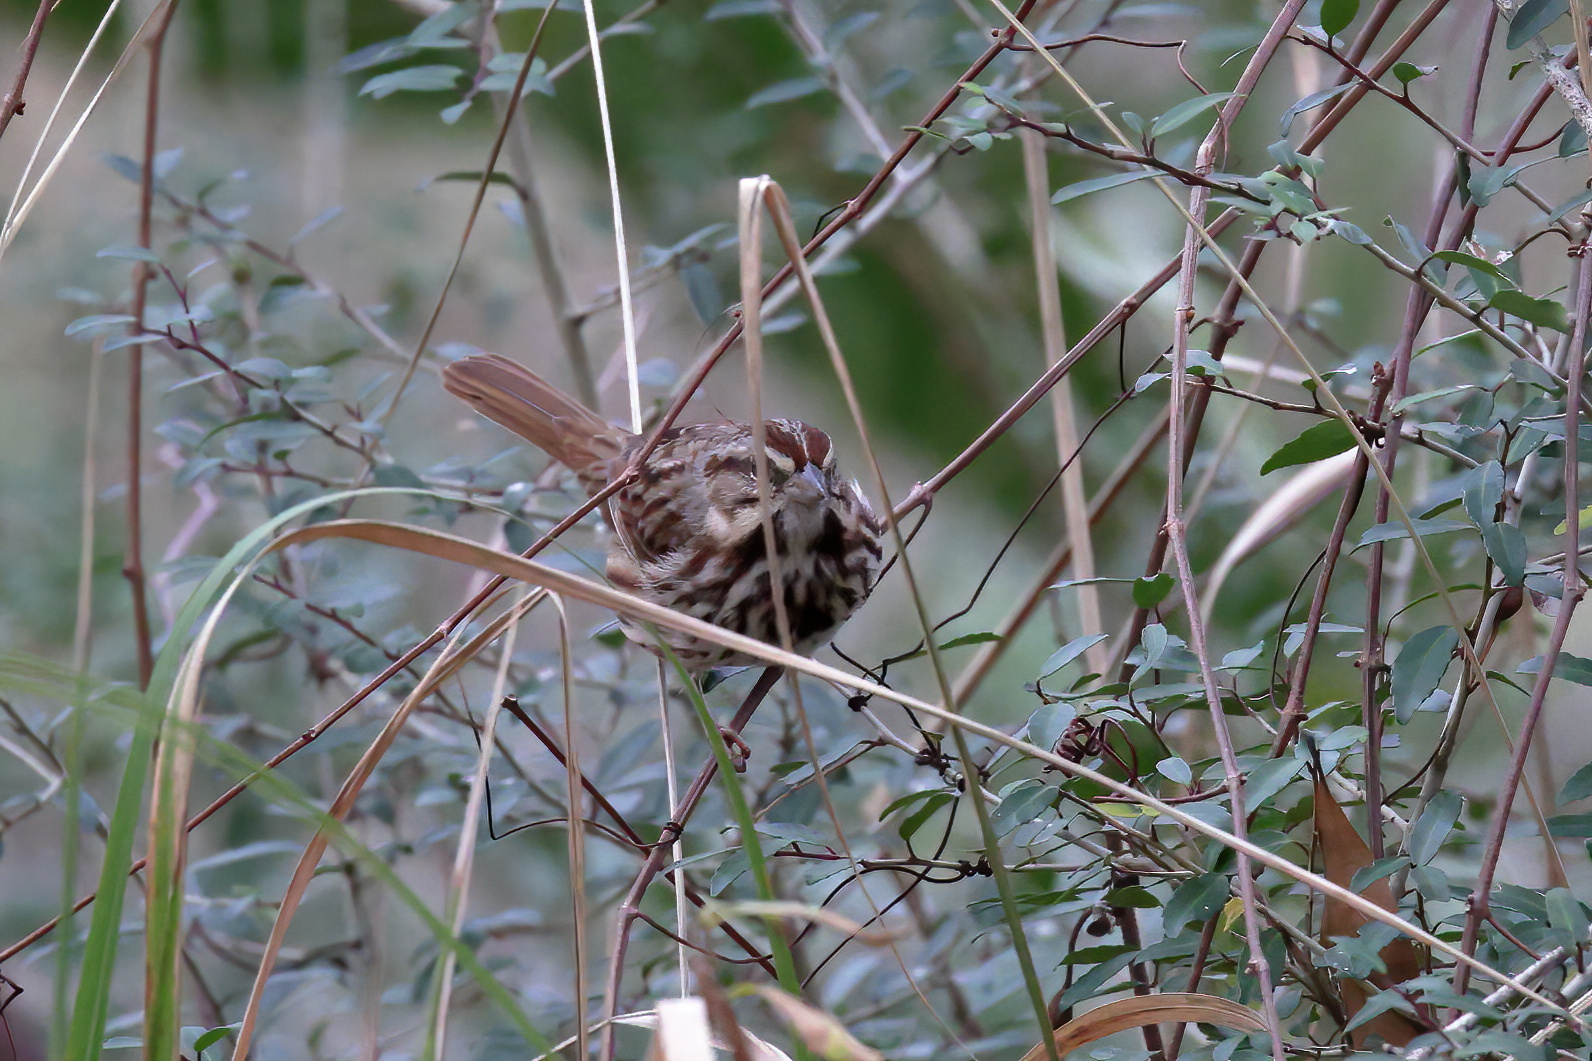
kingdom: Animalia
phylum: Chordata
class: Aves
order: Passeriformes
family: Passerellidae
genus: Melospiza
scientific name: Melospiza melodia
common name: Song sparrow
